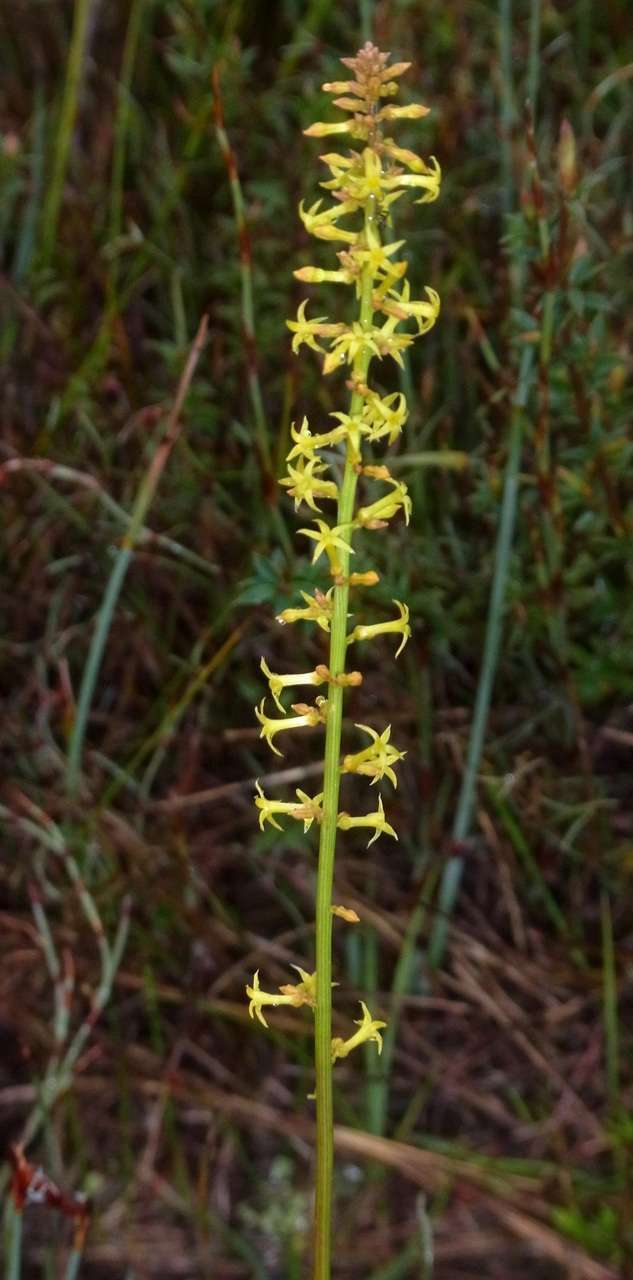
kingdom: Plantae
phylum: Tracheophyta
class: Magnoliopsida
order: Celastrales
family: Celastraceae
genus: Stackhousia
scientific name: Stackhousia viminea
